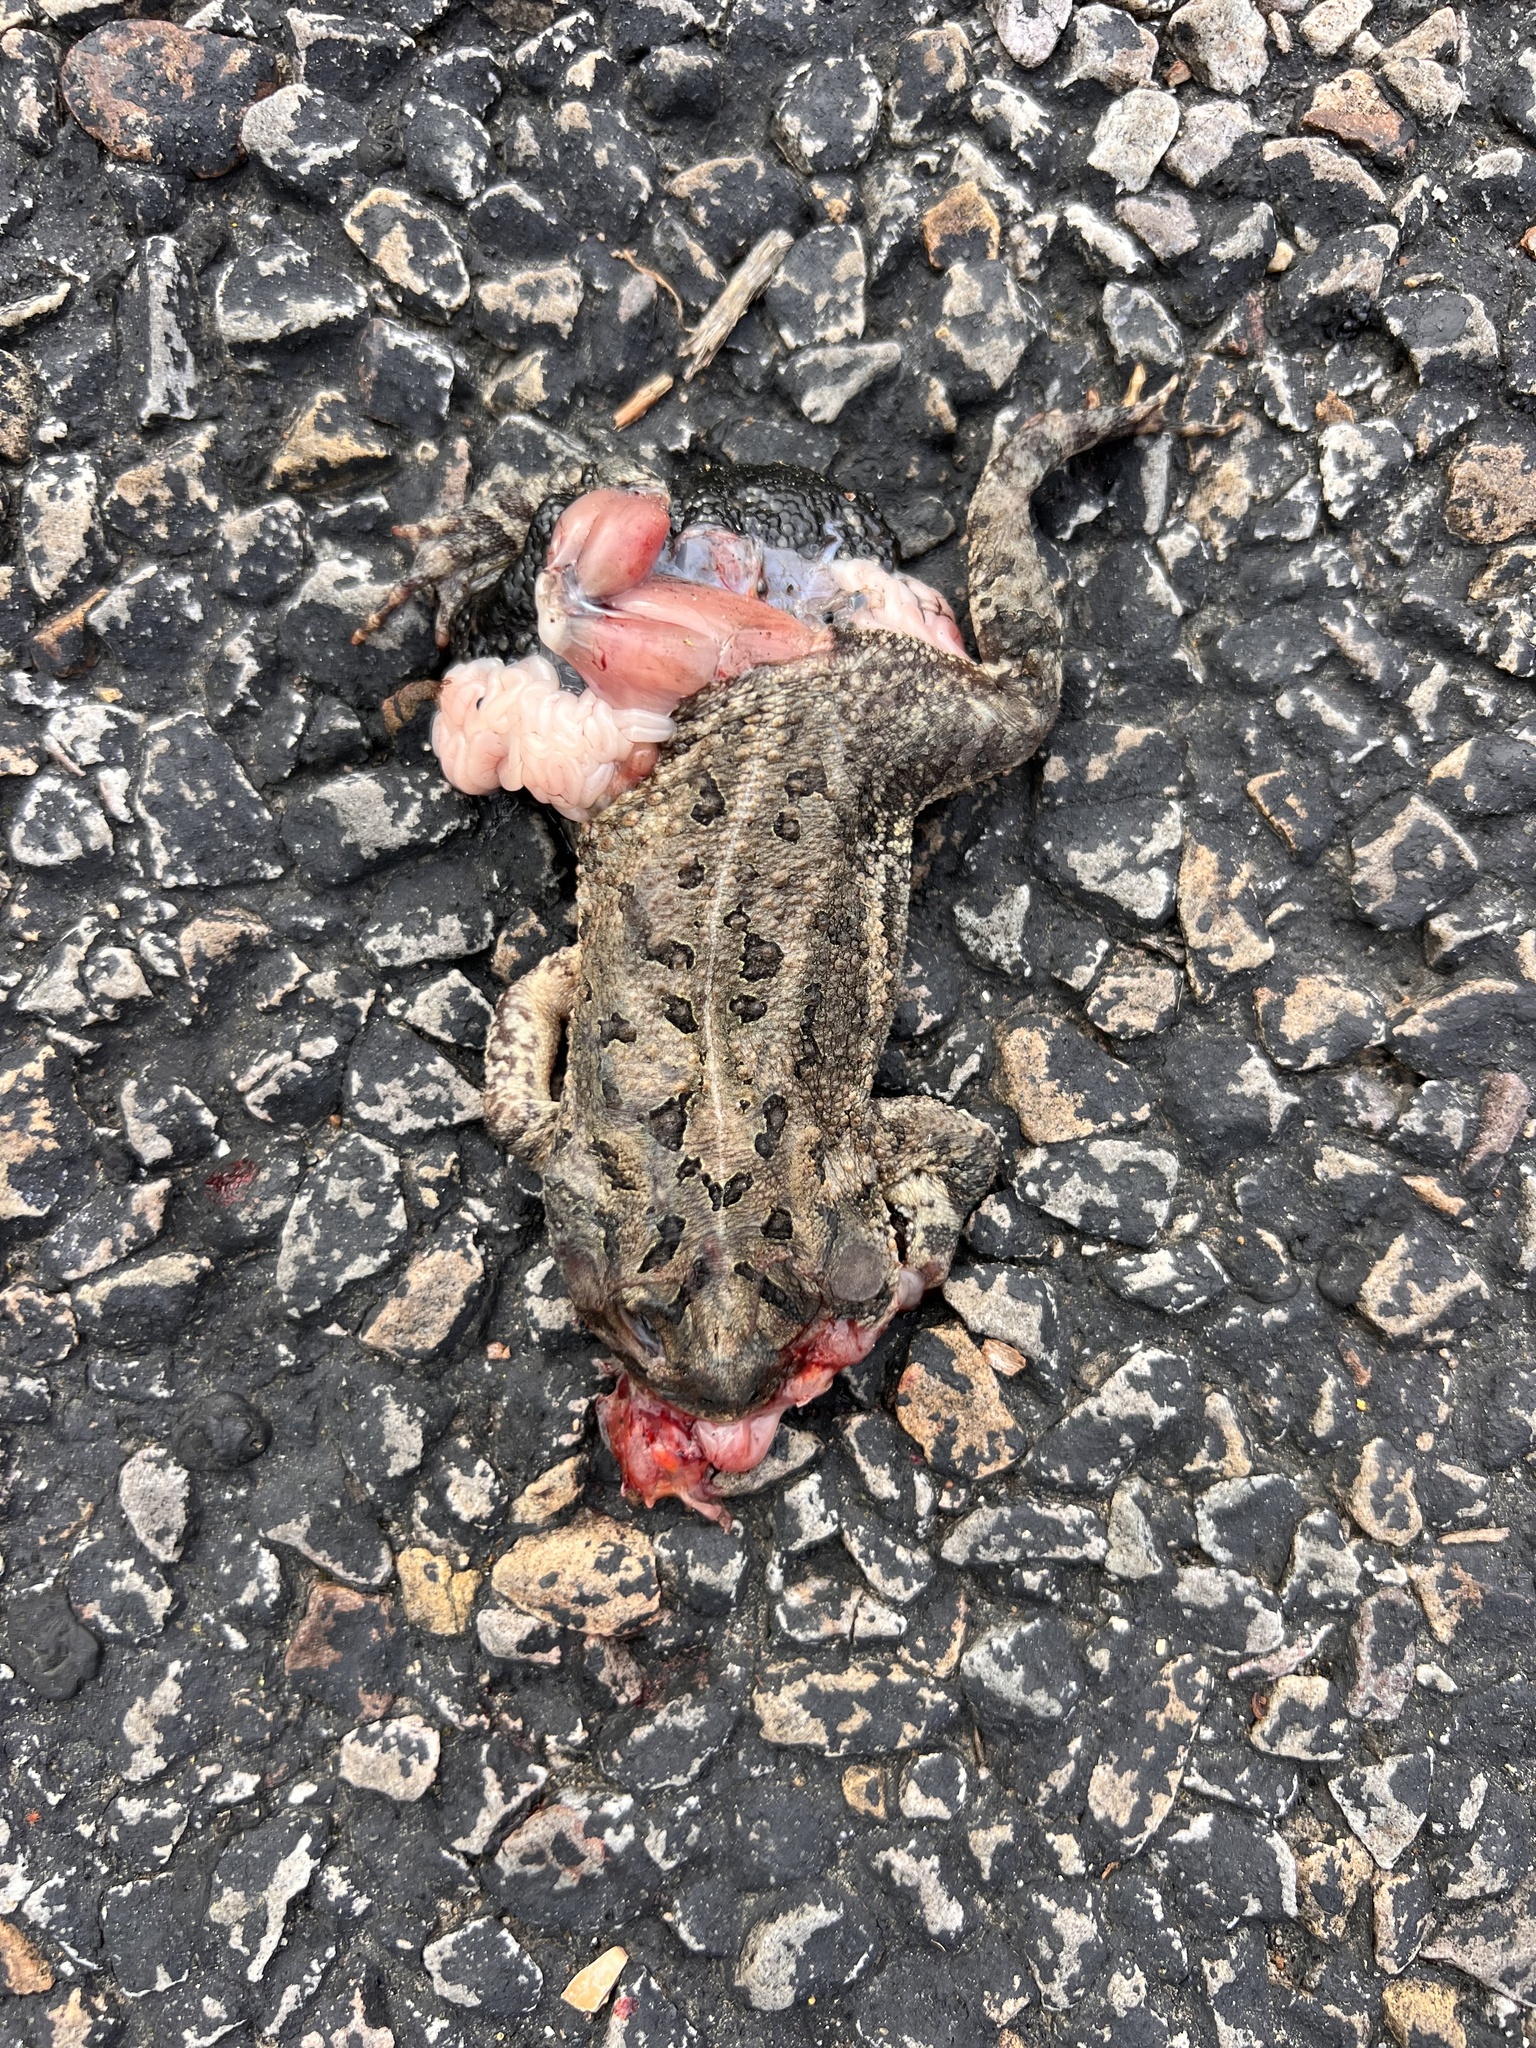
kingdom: Animalia
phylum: Chordata
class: Amphibia
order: Anura
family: Bufonidae
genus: Anaxyrus
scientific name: Anaxyrus fowleri
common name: Fowler's toad
